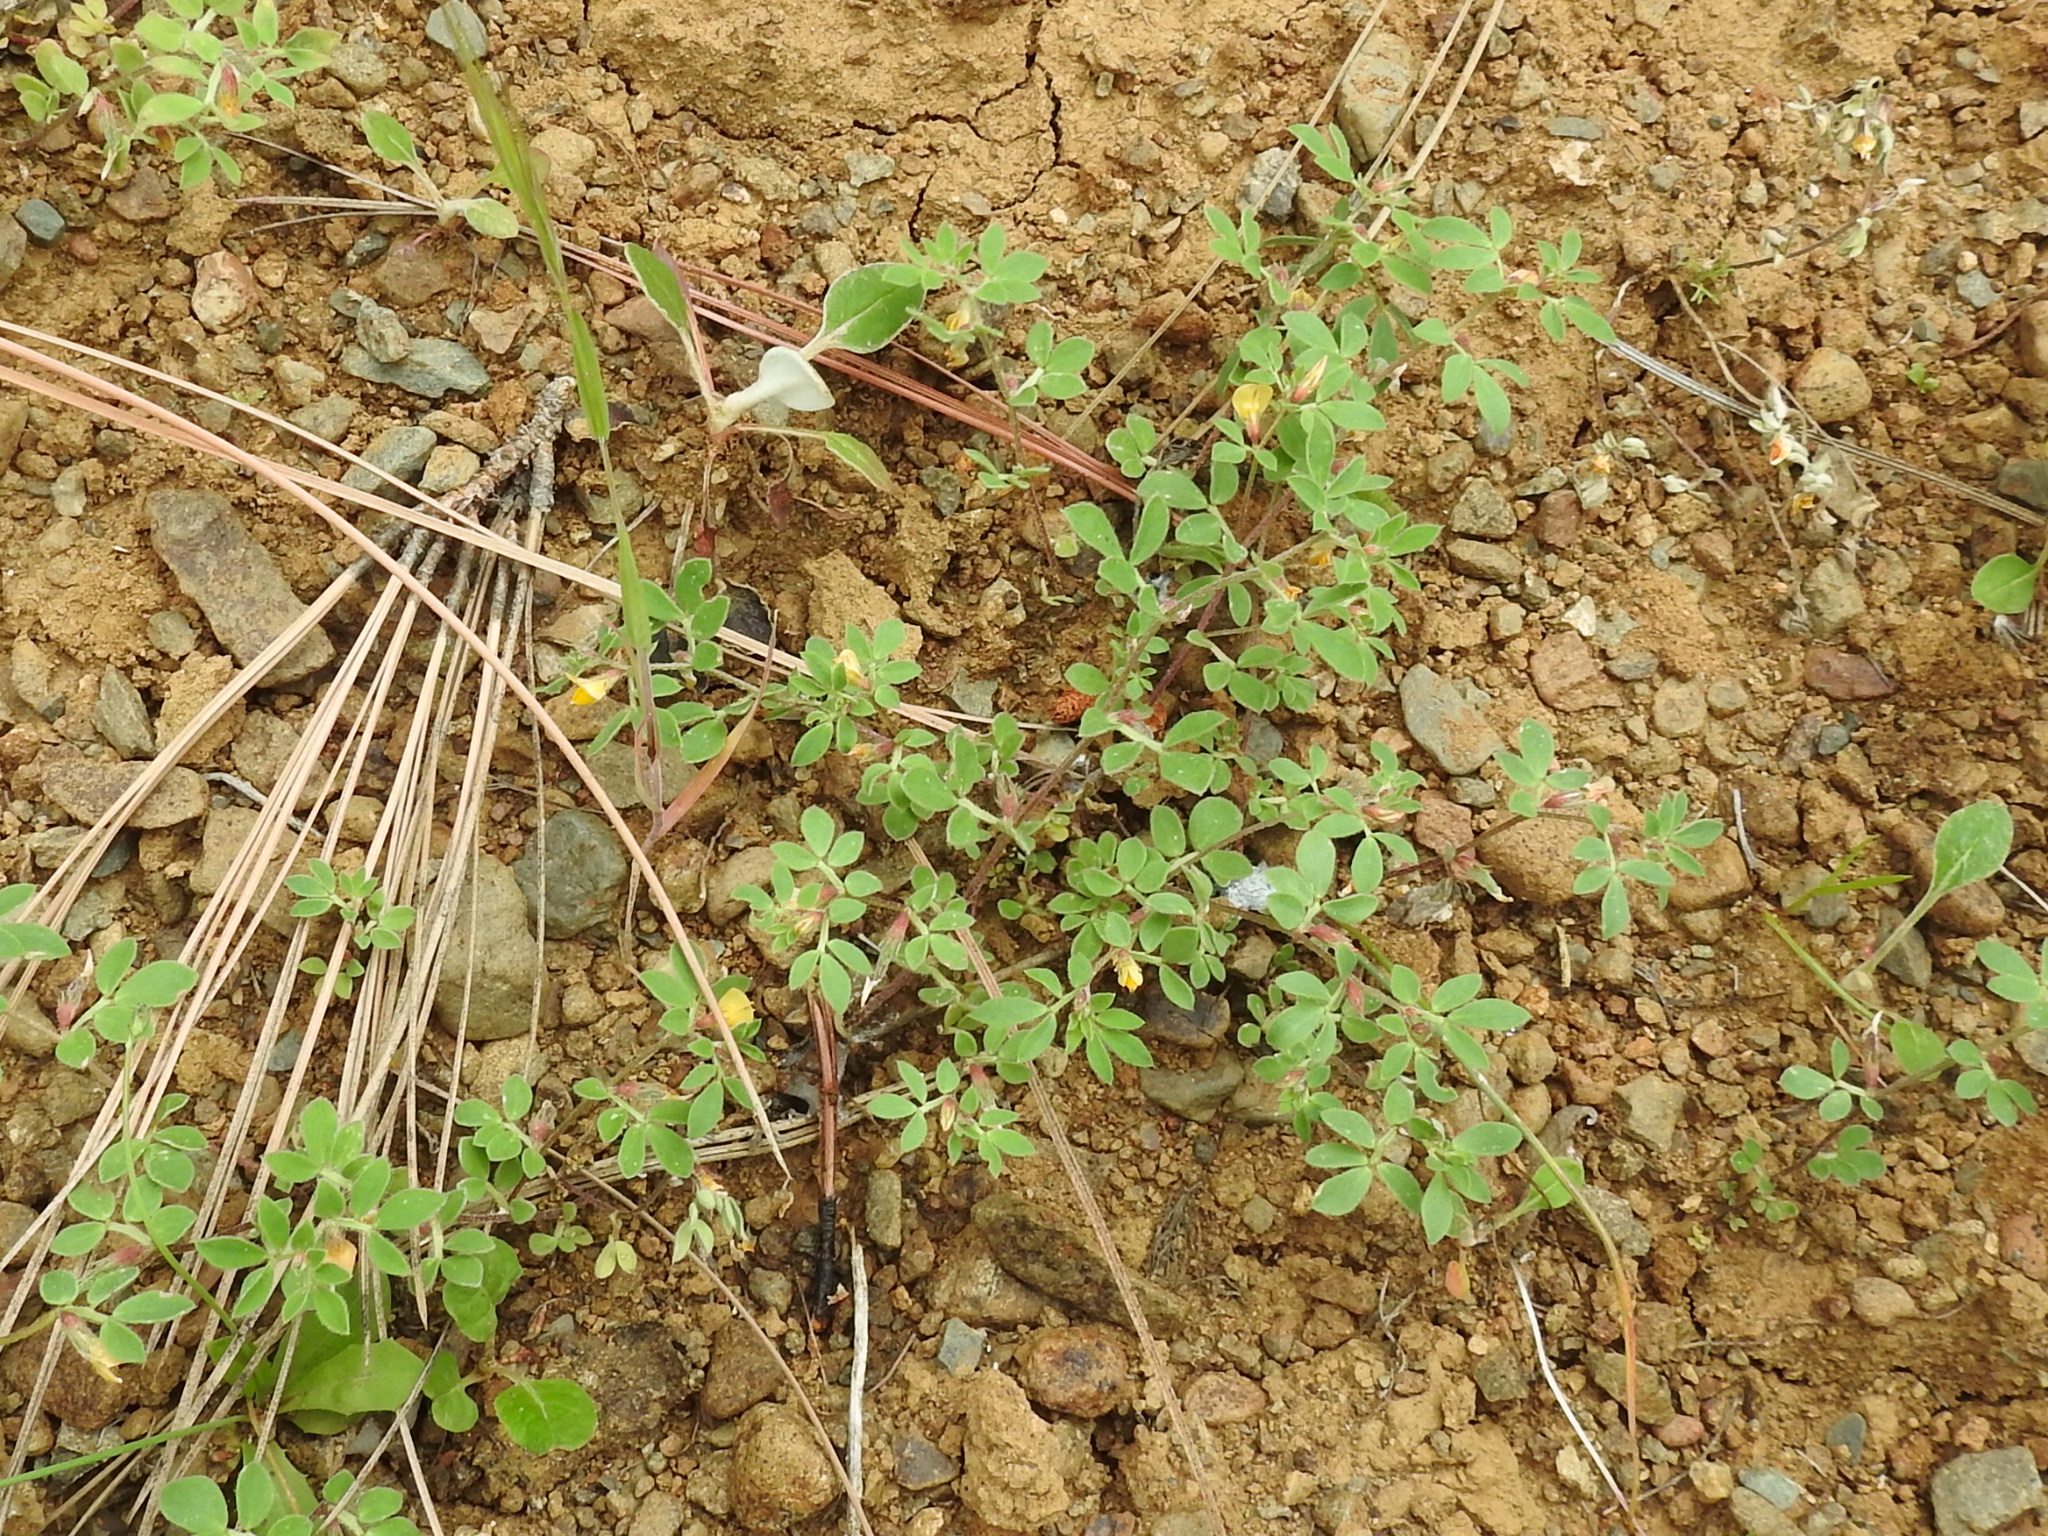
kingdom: Plantae
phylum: Tracheophyta
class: Magnoliopsida
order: Fabales
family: Fabaceae
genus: Acmispon
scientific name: Acmispon wrangelianus
